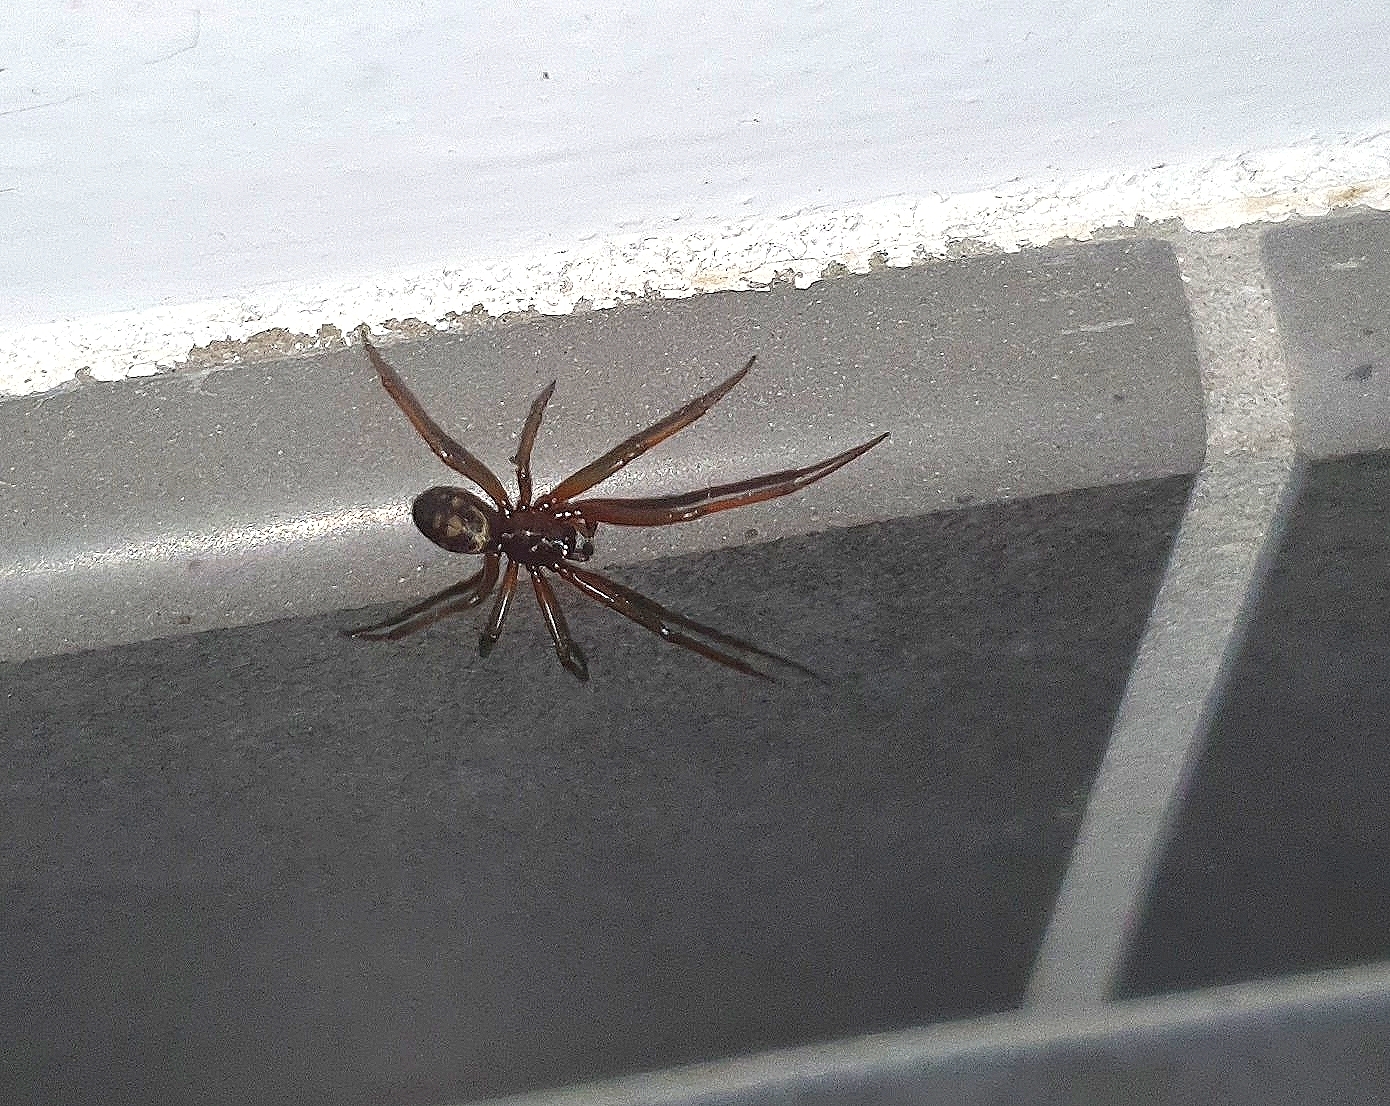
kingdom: Animalia
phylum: Arthropoda
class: Arachnida
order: Araneae
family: Theridiidae
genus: Steatoda
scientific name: Steatoda grossa
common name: False black widow
